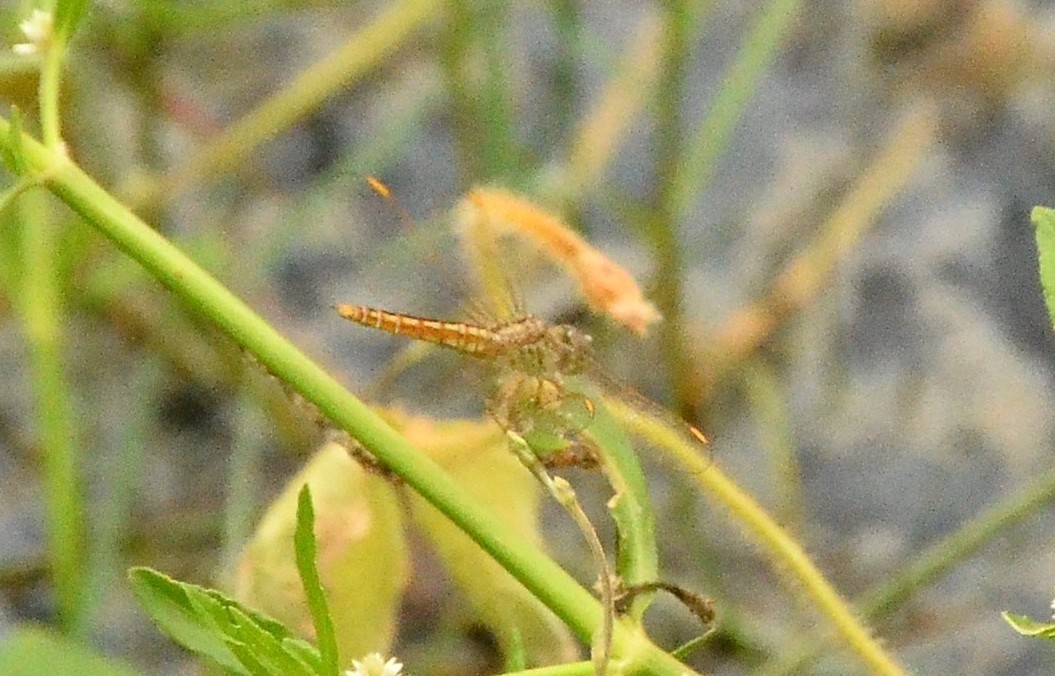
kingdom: Animalia
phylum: Arthropoda
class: Insecta
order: Odonata
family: Libellulidae
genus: Brachythemis
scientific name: Brachythemis contaminata
